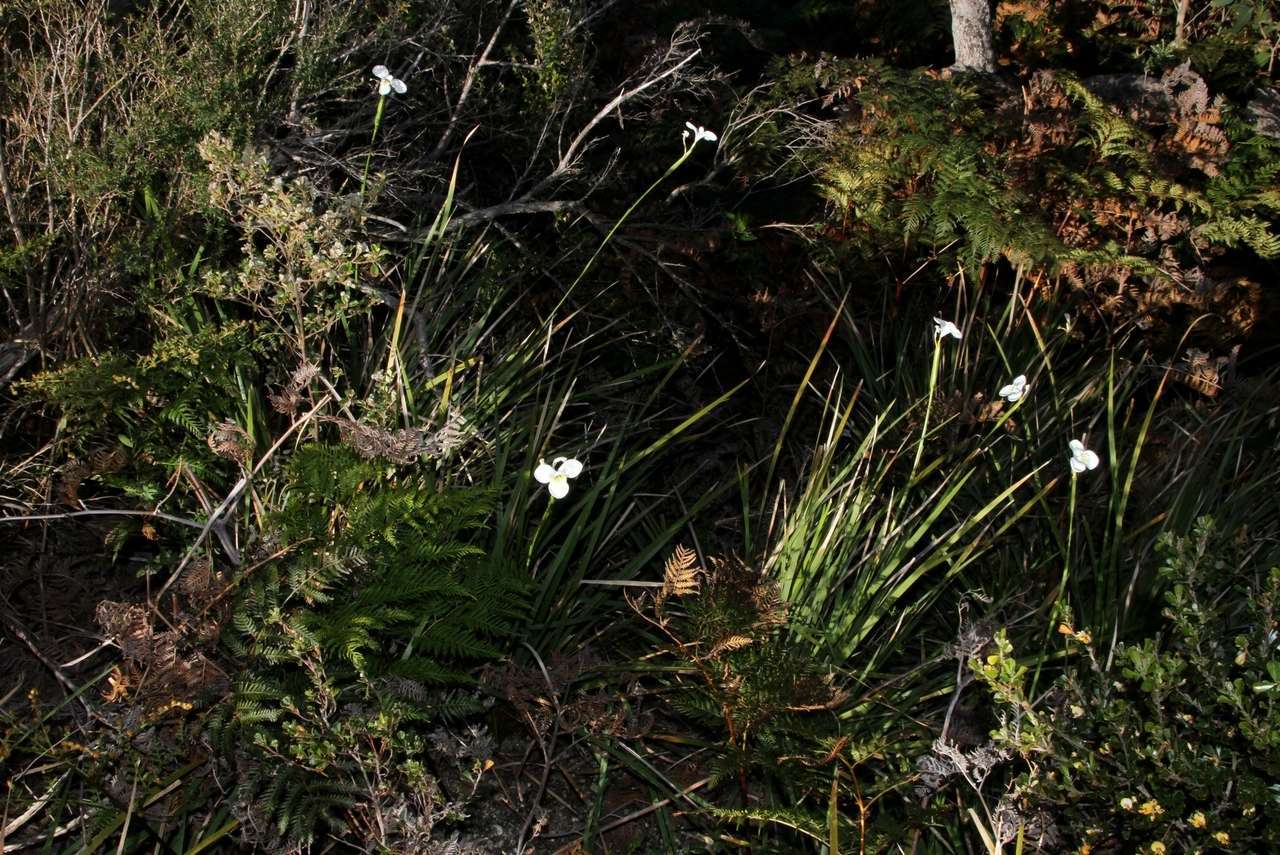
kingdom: Plantae
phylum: Tracheophyta
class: Liliopsida
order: Asparagales
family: Iridaceae
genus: Diplarrena
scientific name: Diplarrena moraea
